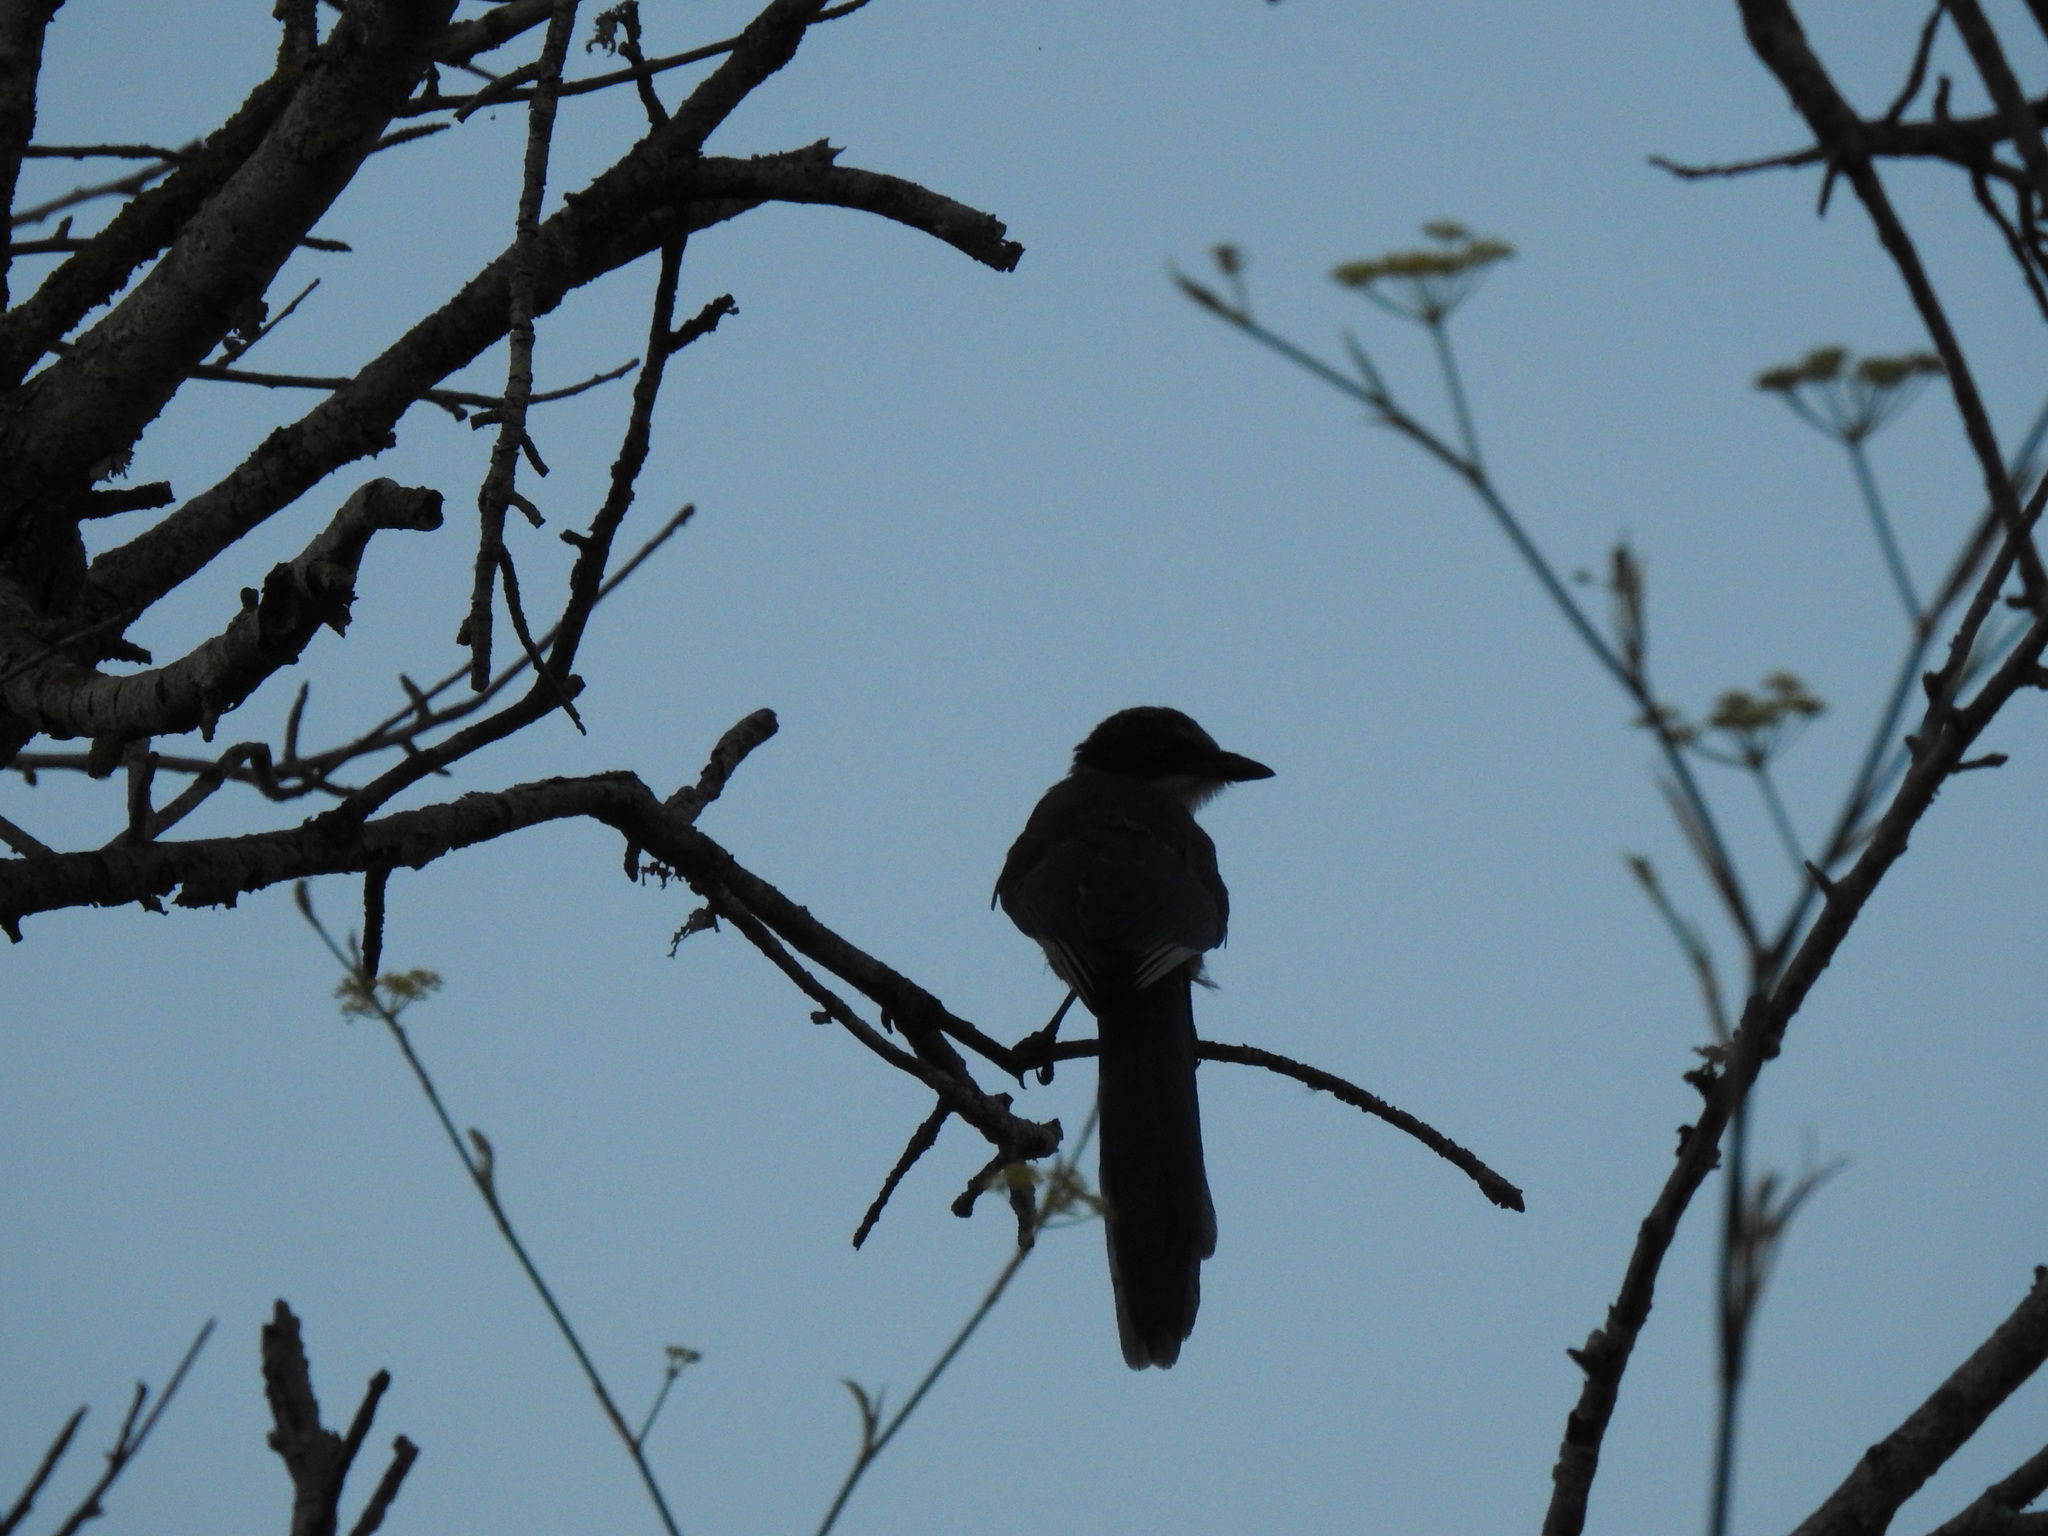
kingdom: Animalia
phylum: Chordata
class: Aves
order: Passeriformes
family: Corvidae
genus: Cyanopica
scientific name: Cyanopica cooki
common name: Iberian magpie
